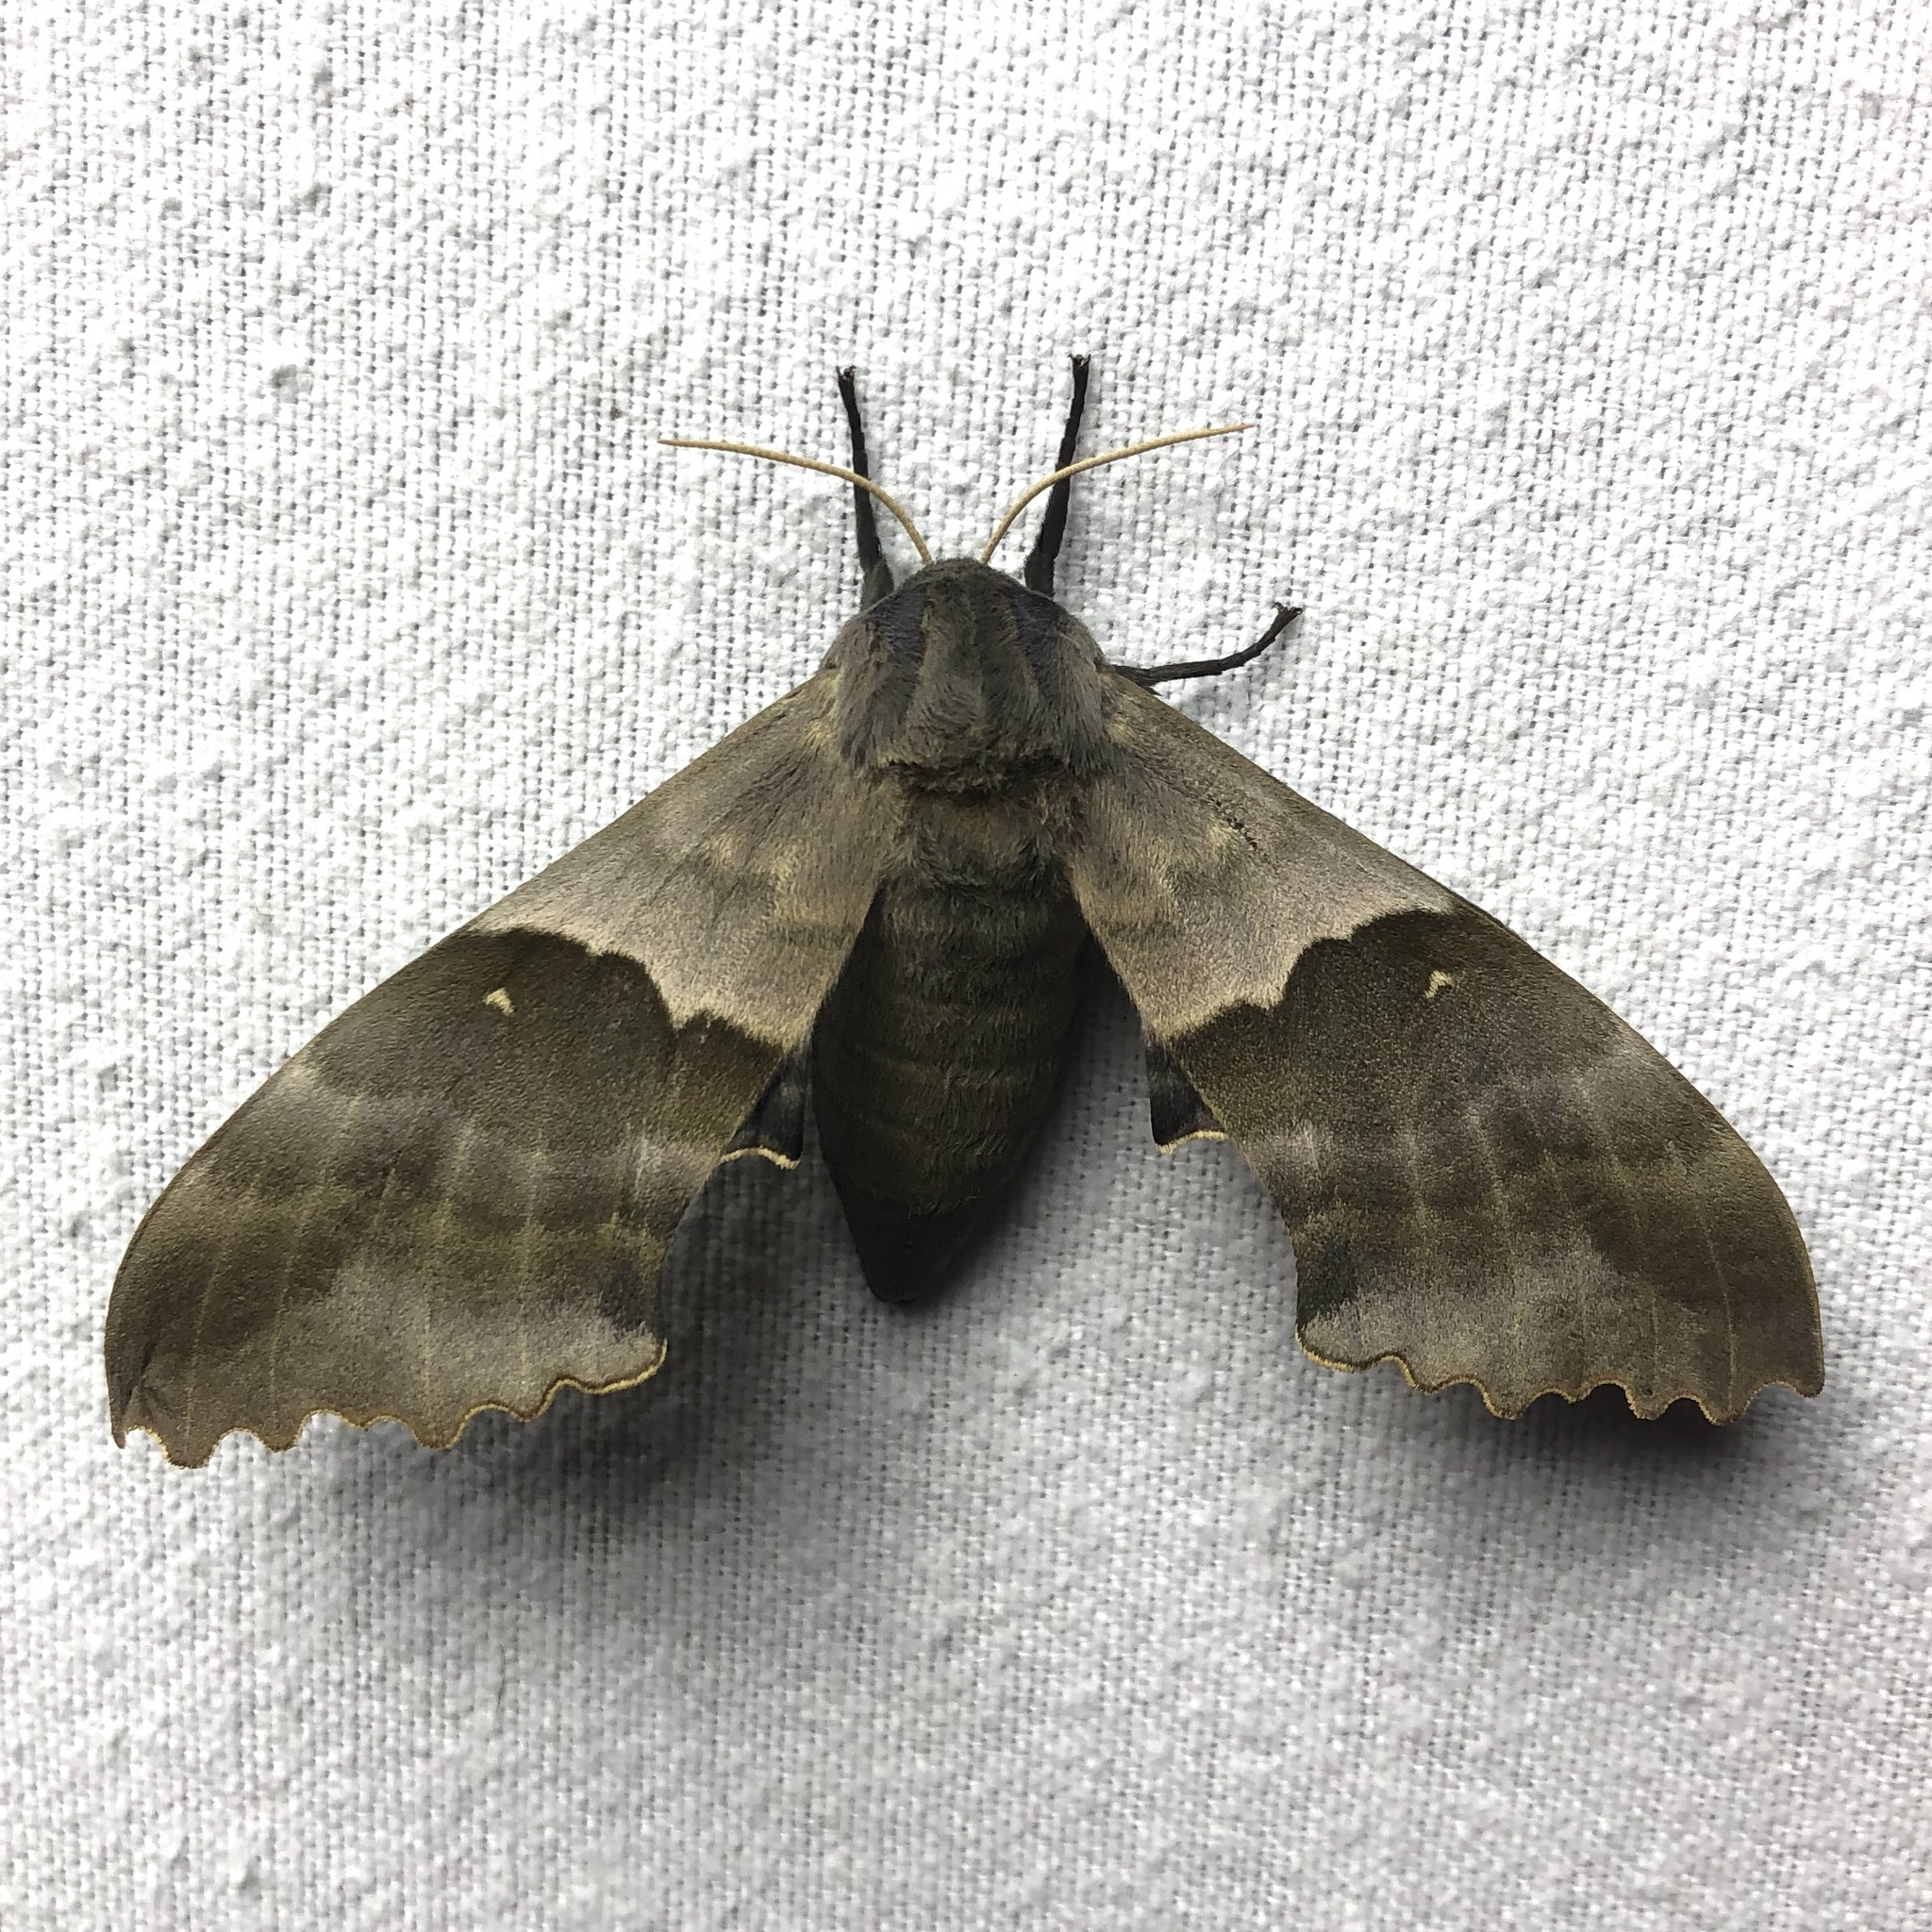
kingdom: Animalia
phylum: Arthropoda
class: Insecta
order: Lepidoptera
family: Sphingidae
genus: Pachysphinx
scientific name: Pachysphinx modesta
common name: Big poplar sphinx
